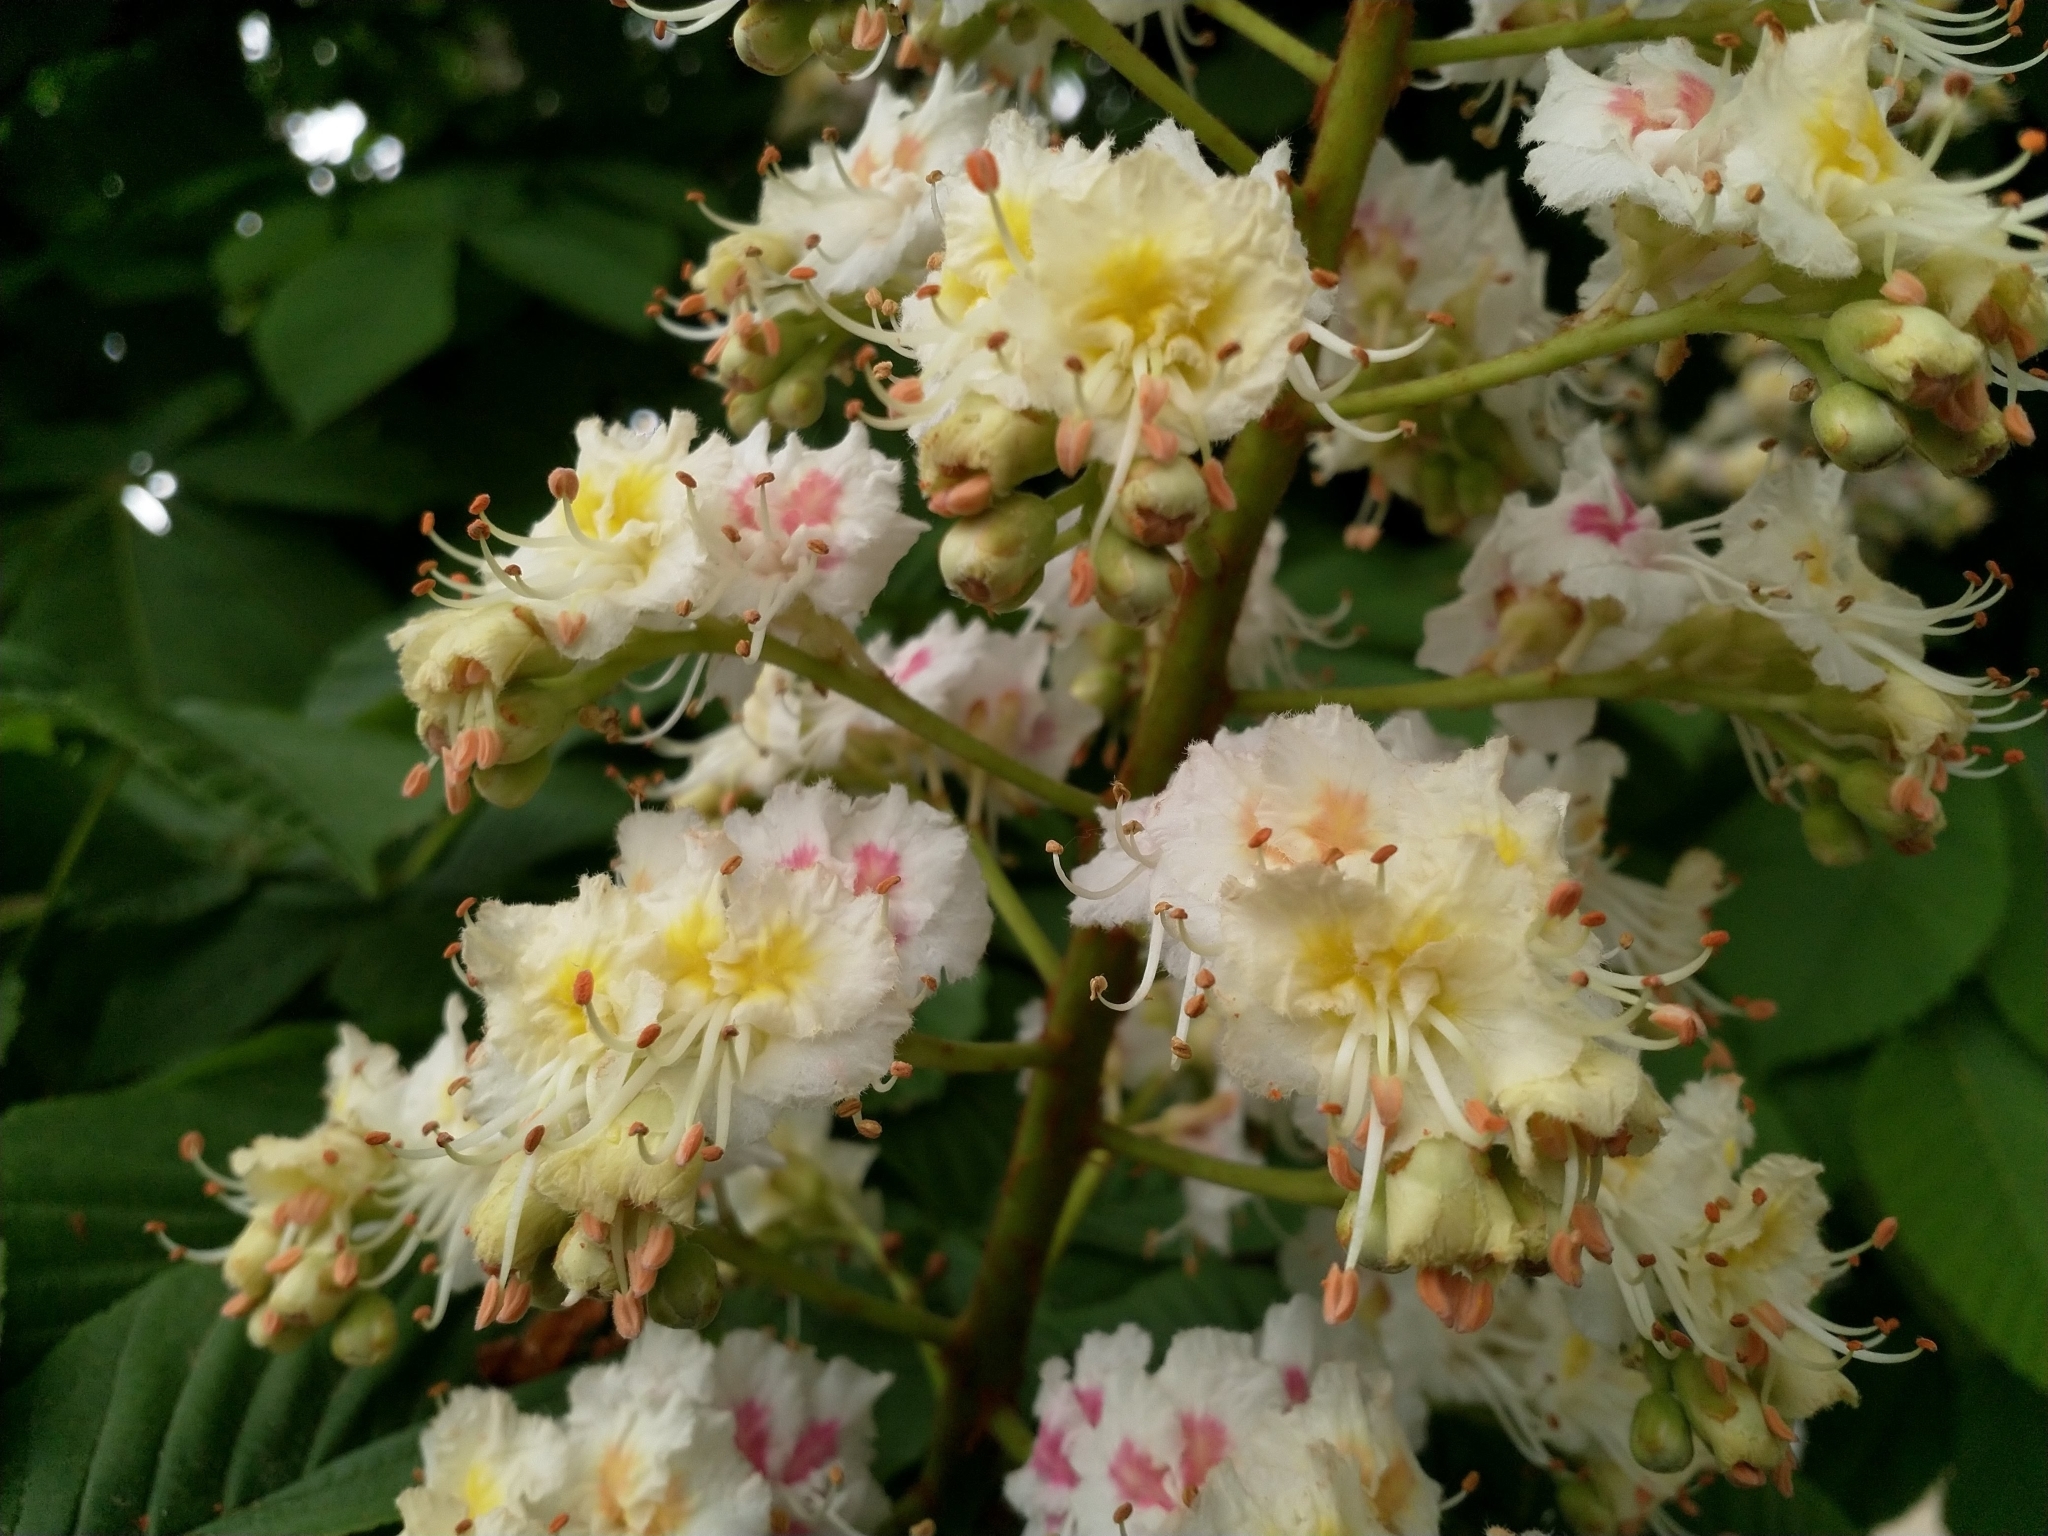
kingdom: Plantae
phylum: Tracheophyta
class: Magnoliopsida
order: Sapindales
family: Sapindaceae
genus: Aesculus
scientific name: Aesculus hippocastanum
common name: Horse-chestnut
